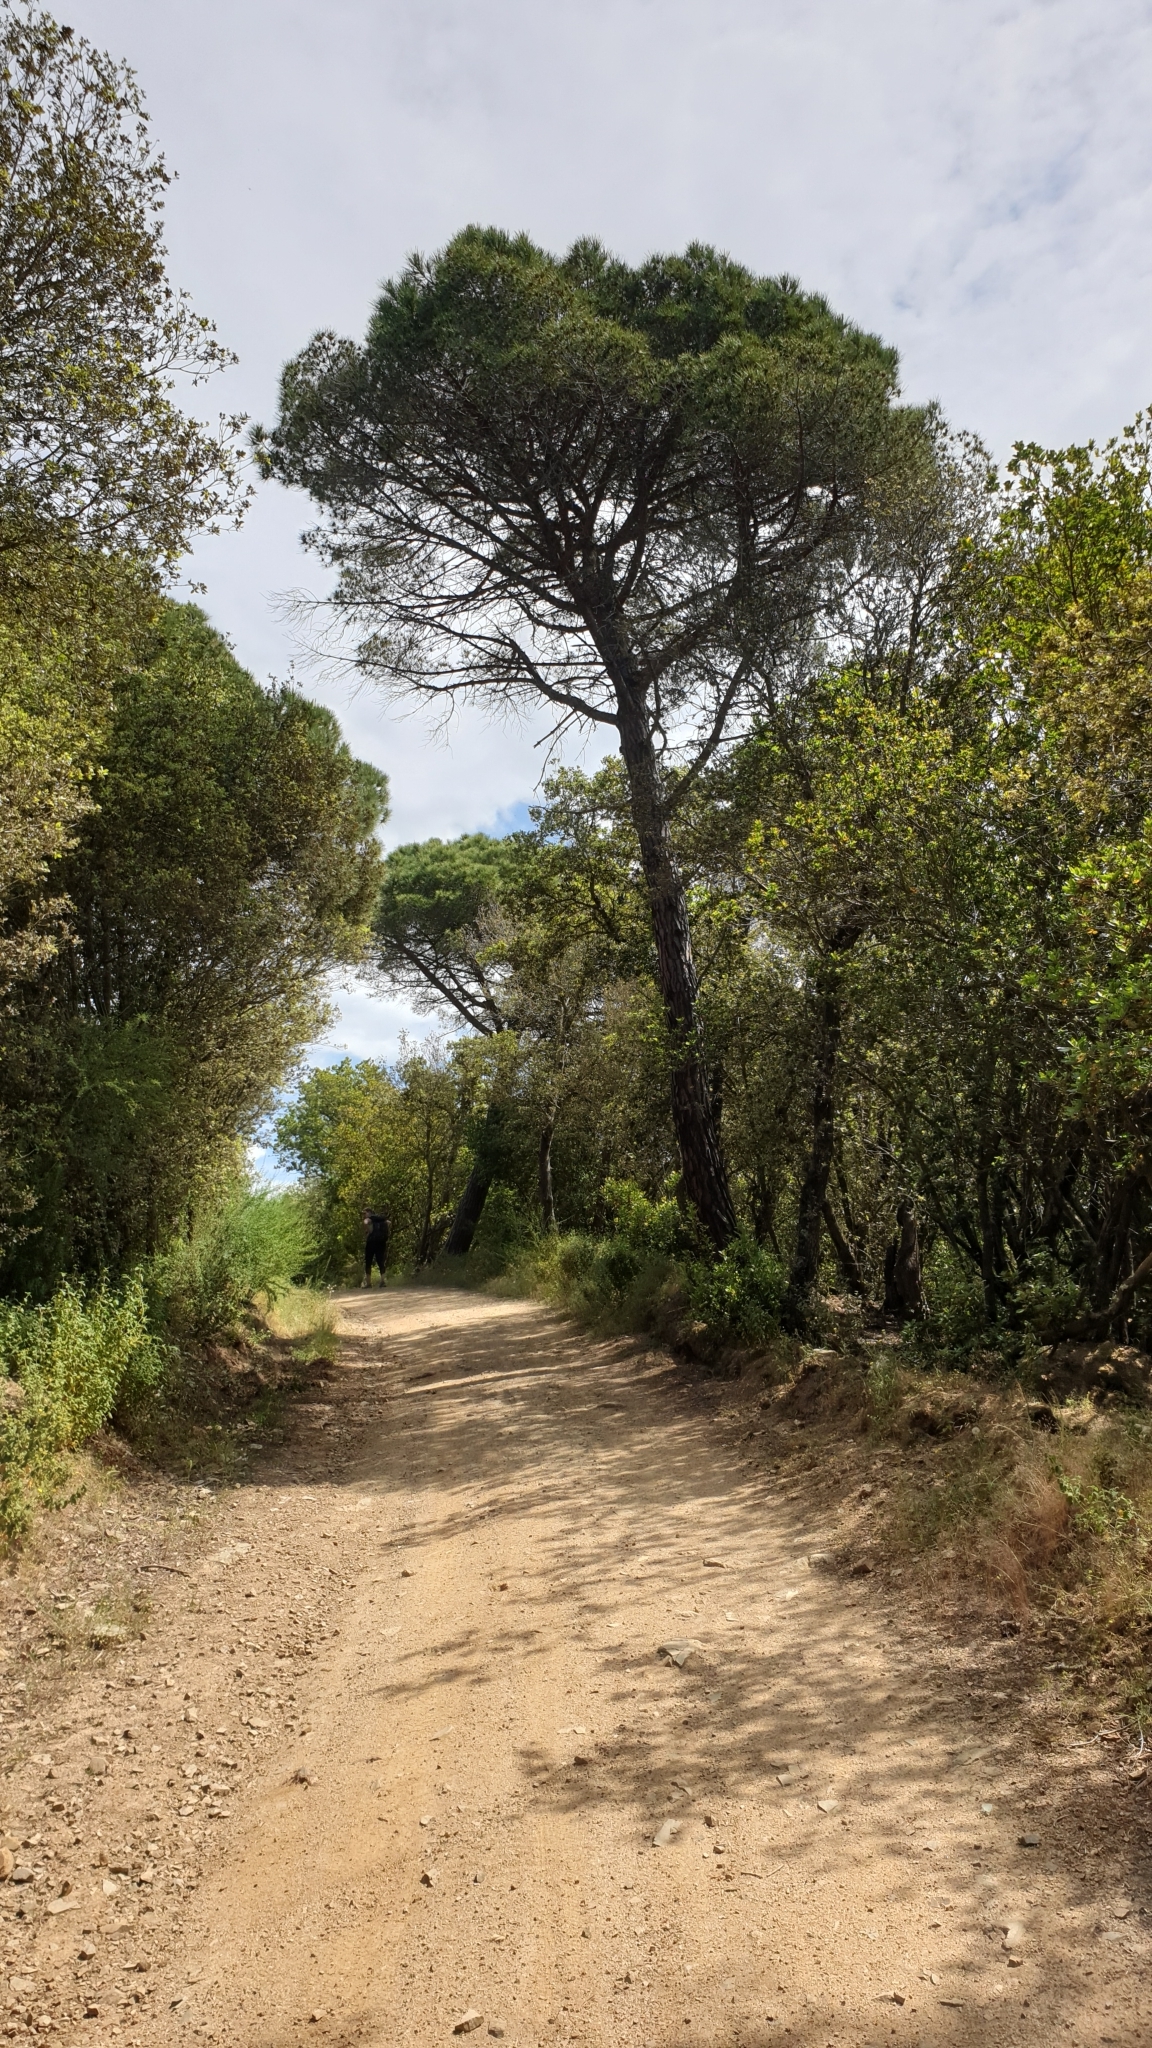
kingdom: Plantae
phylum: Tracheophyta
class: Pinopsida
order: Pinales
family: Pinaceae
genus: Pinus
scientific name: Pinus pinea
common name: Italian stone pine
